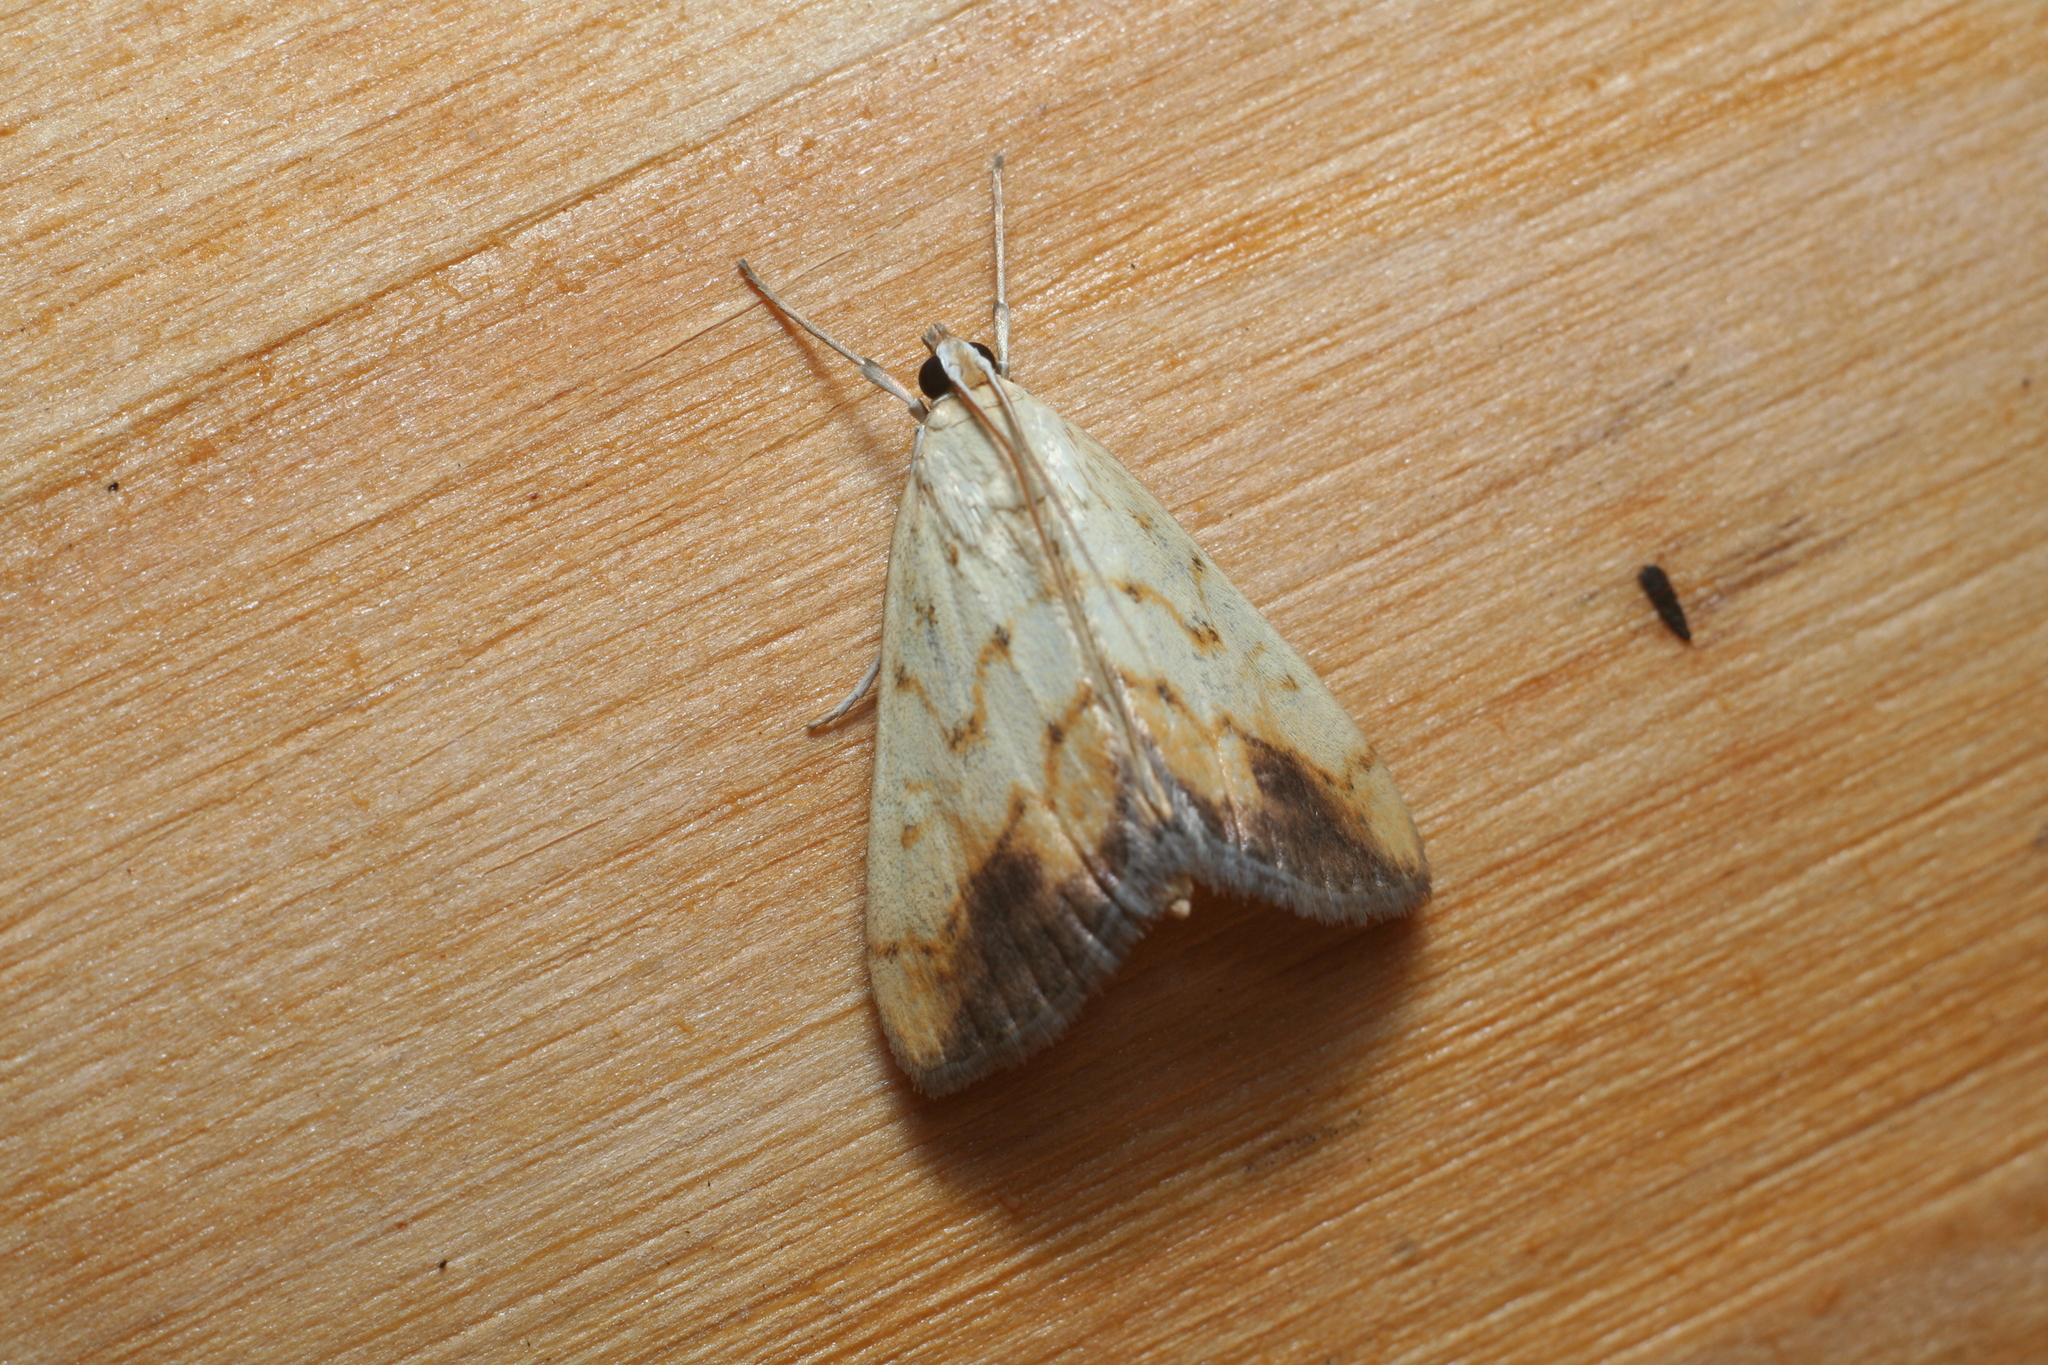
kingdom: Animalia
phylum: Arthropoda
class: Insecta
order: Lepidoptera
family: Crambidae
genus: Evergestis
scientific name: Evergestis extimalis
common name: Marbled yellow pearl
